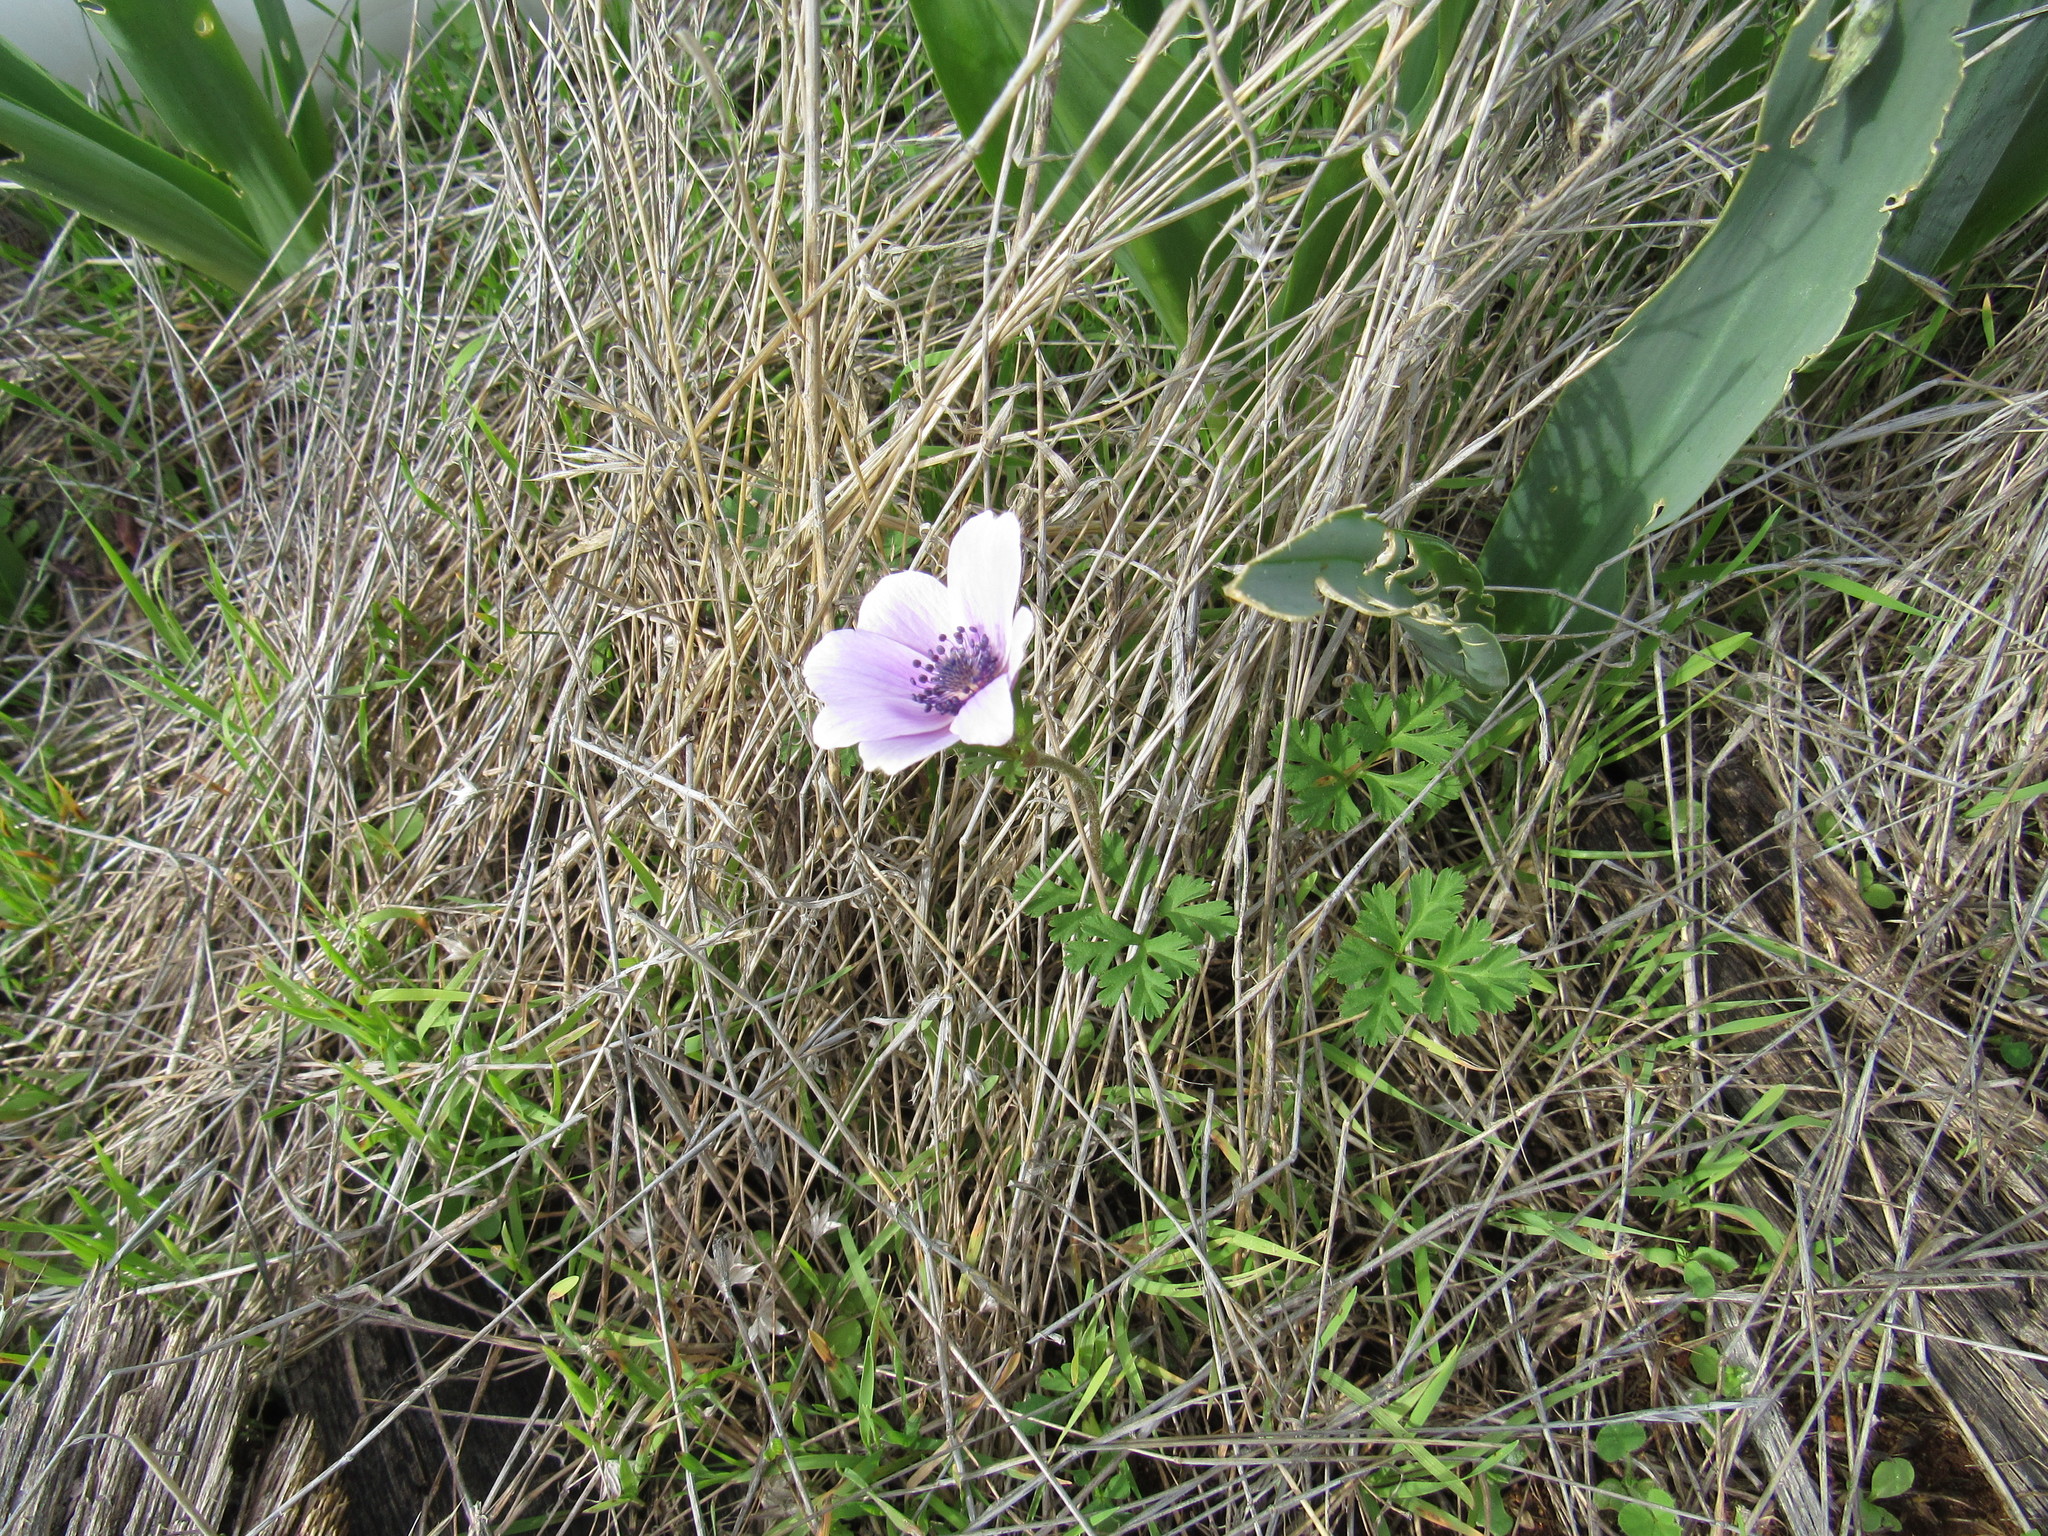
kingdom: Plantae
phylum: Tracheophyta
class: Magnoliopsida
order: Ranunculales
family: Ranunculaceae
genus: Anemone
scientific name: Anemone coronaria
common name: Poppy anemone
